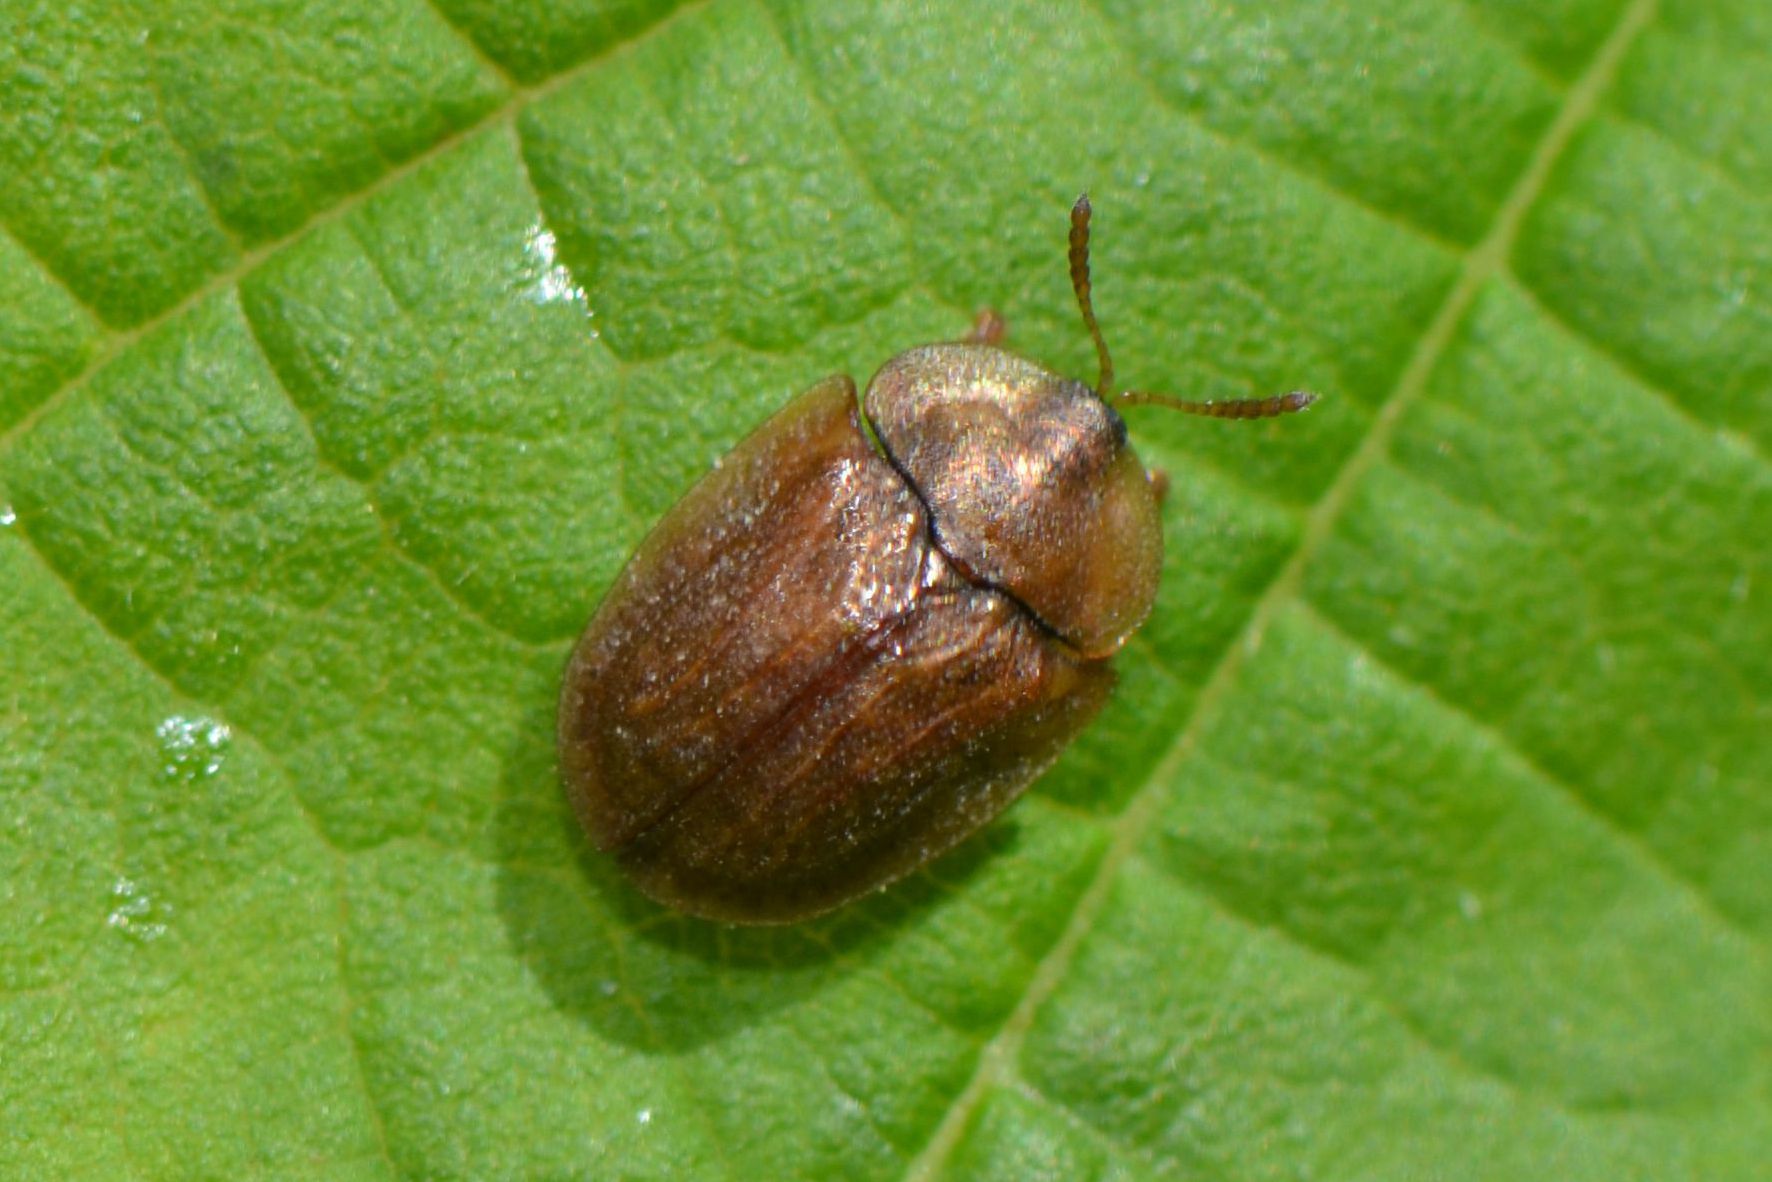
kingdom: Animalia
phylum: Arthropoda
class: Insecta
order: Coleoptera
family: Chrysomelidae
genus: Hypocassida
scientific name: Hypocassida subferruginea
